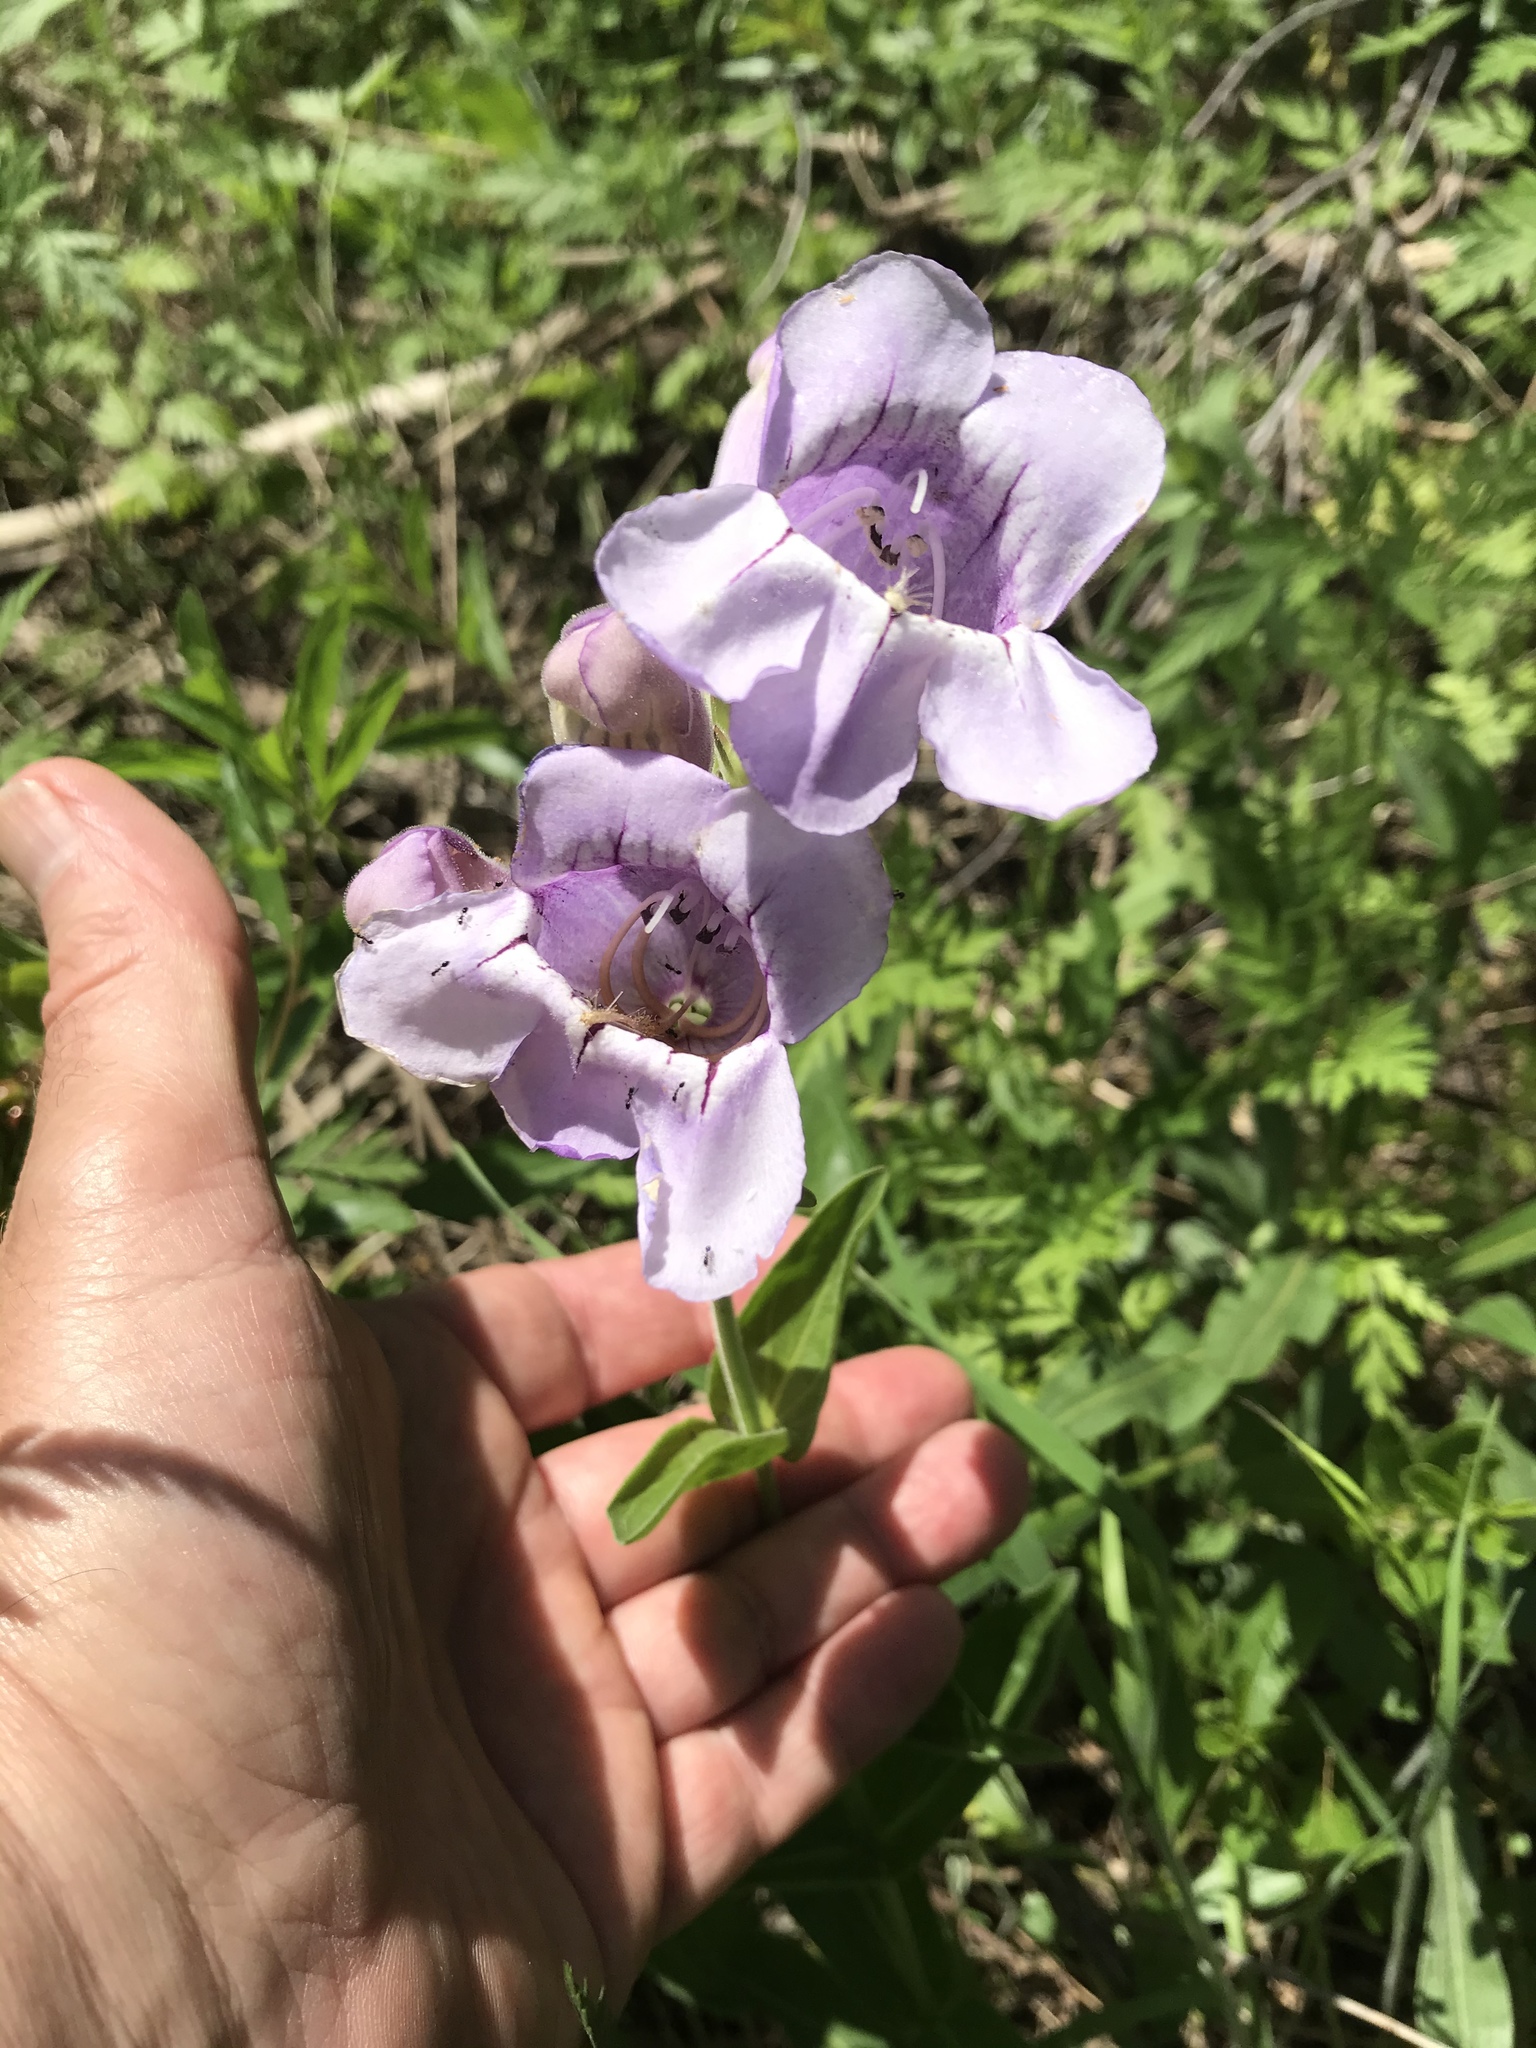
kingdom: Plantae
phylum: Tracheophyta
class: Magnoliopsida
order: Lamiales
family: Plantaginaceae
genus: Penstemon
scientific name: Penstemon cobaea
